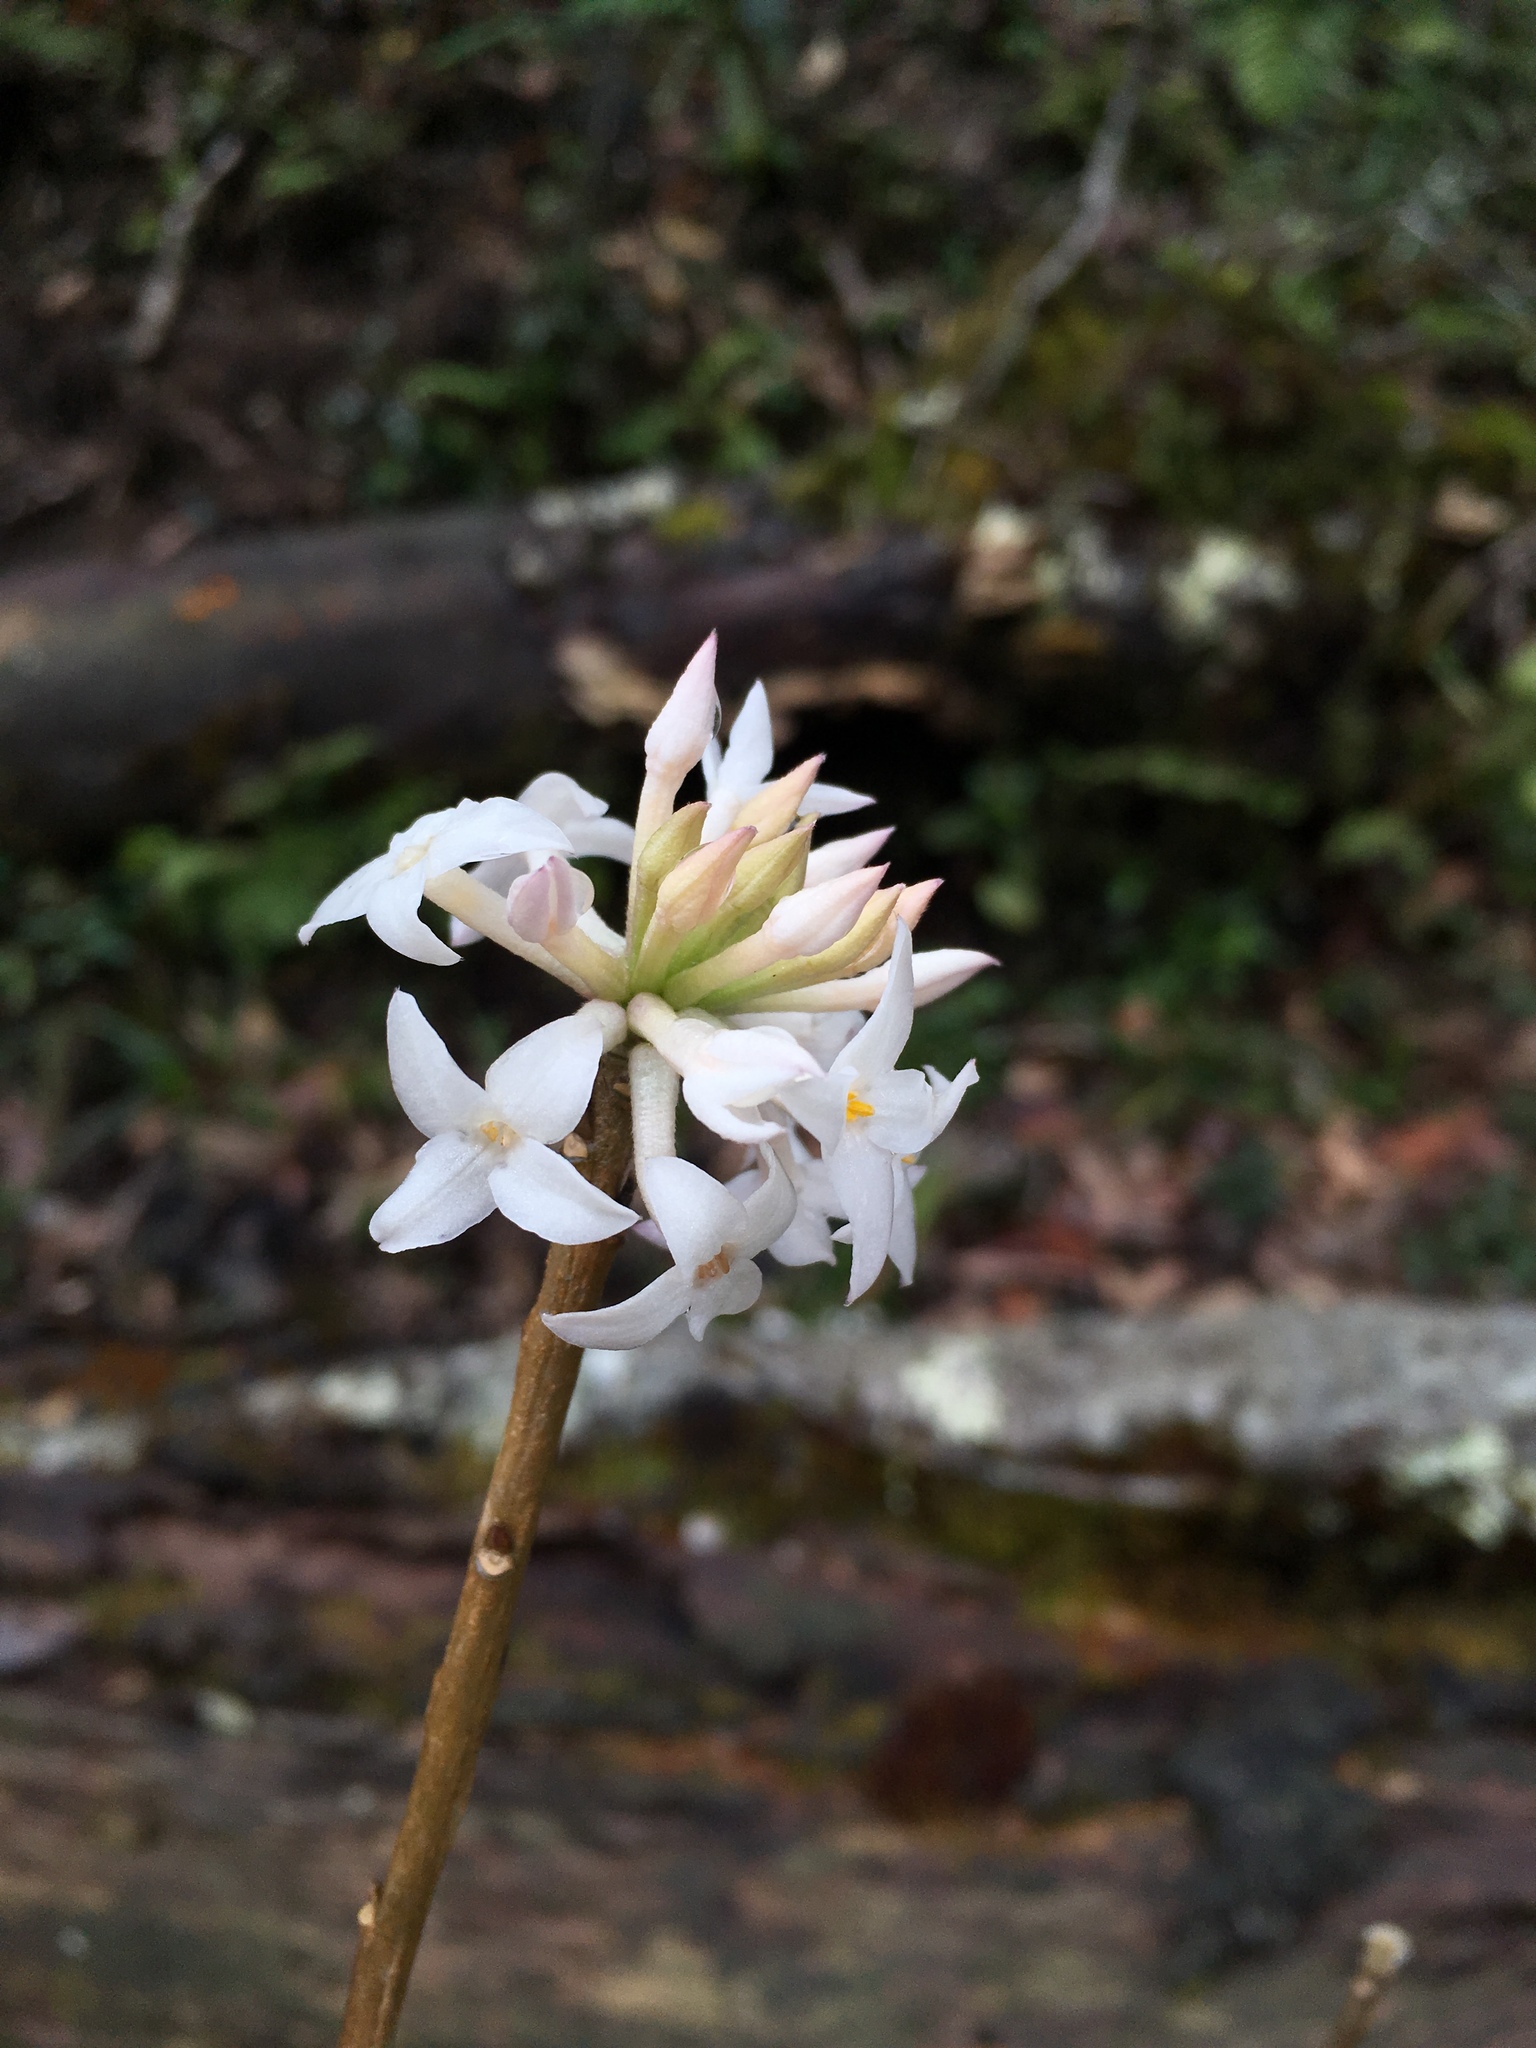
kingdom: Plantae
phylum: Tracheophyta
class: Magnoliopsida
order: Malvales
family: Thymelaeaceae
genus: Daphne
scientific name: Daphne bholua
